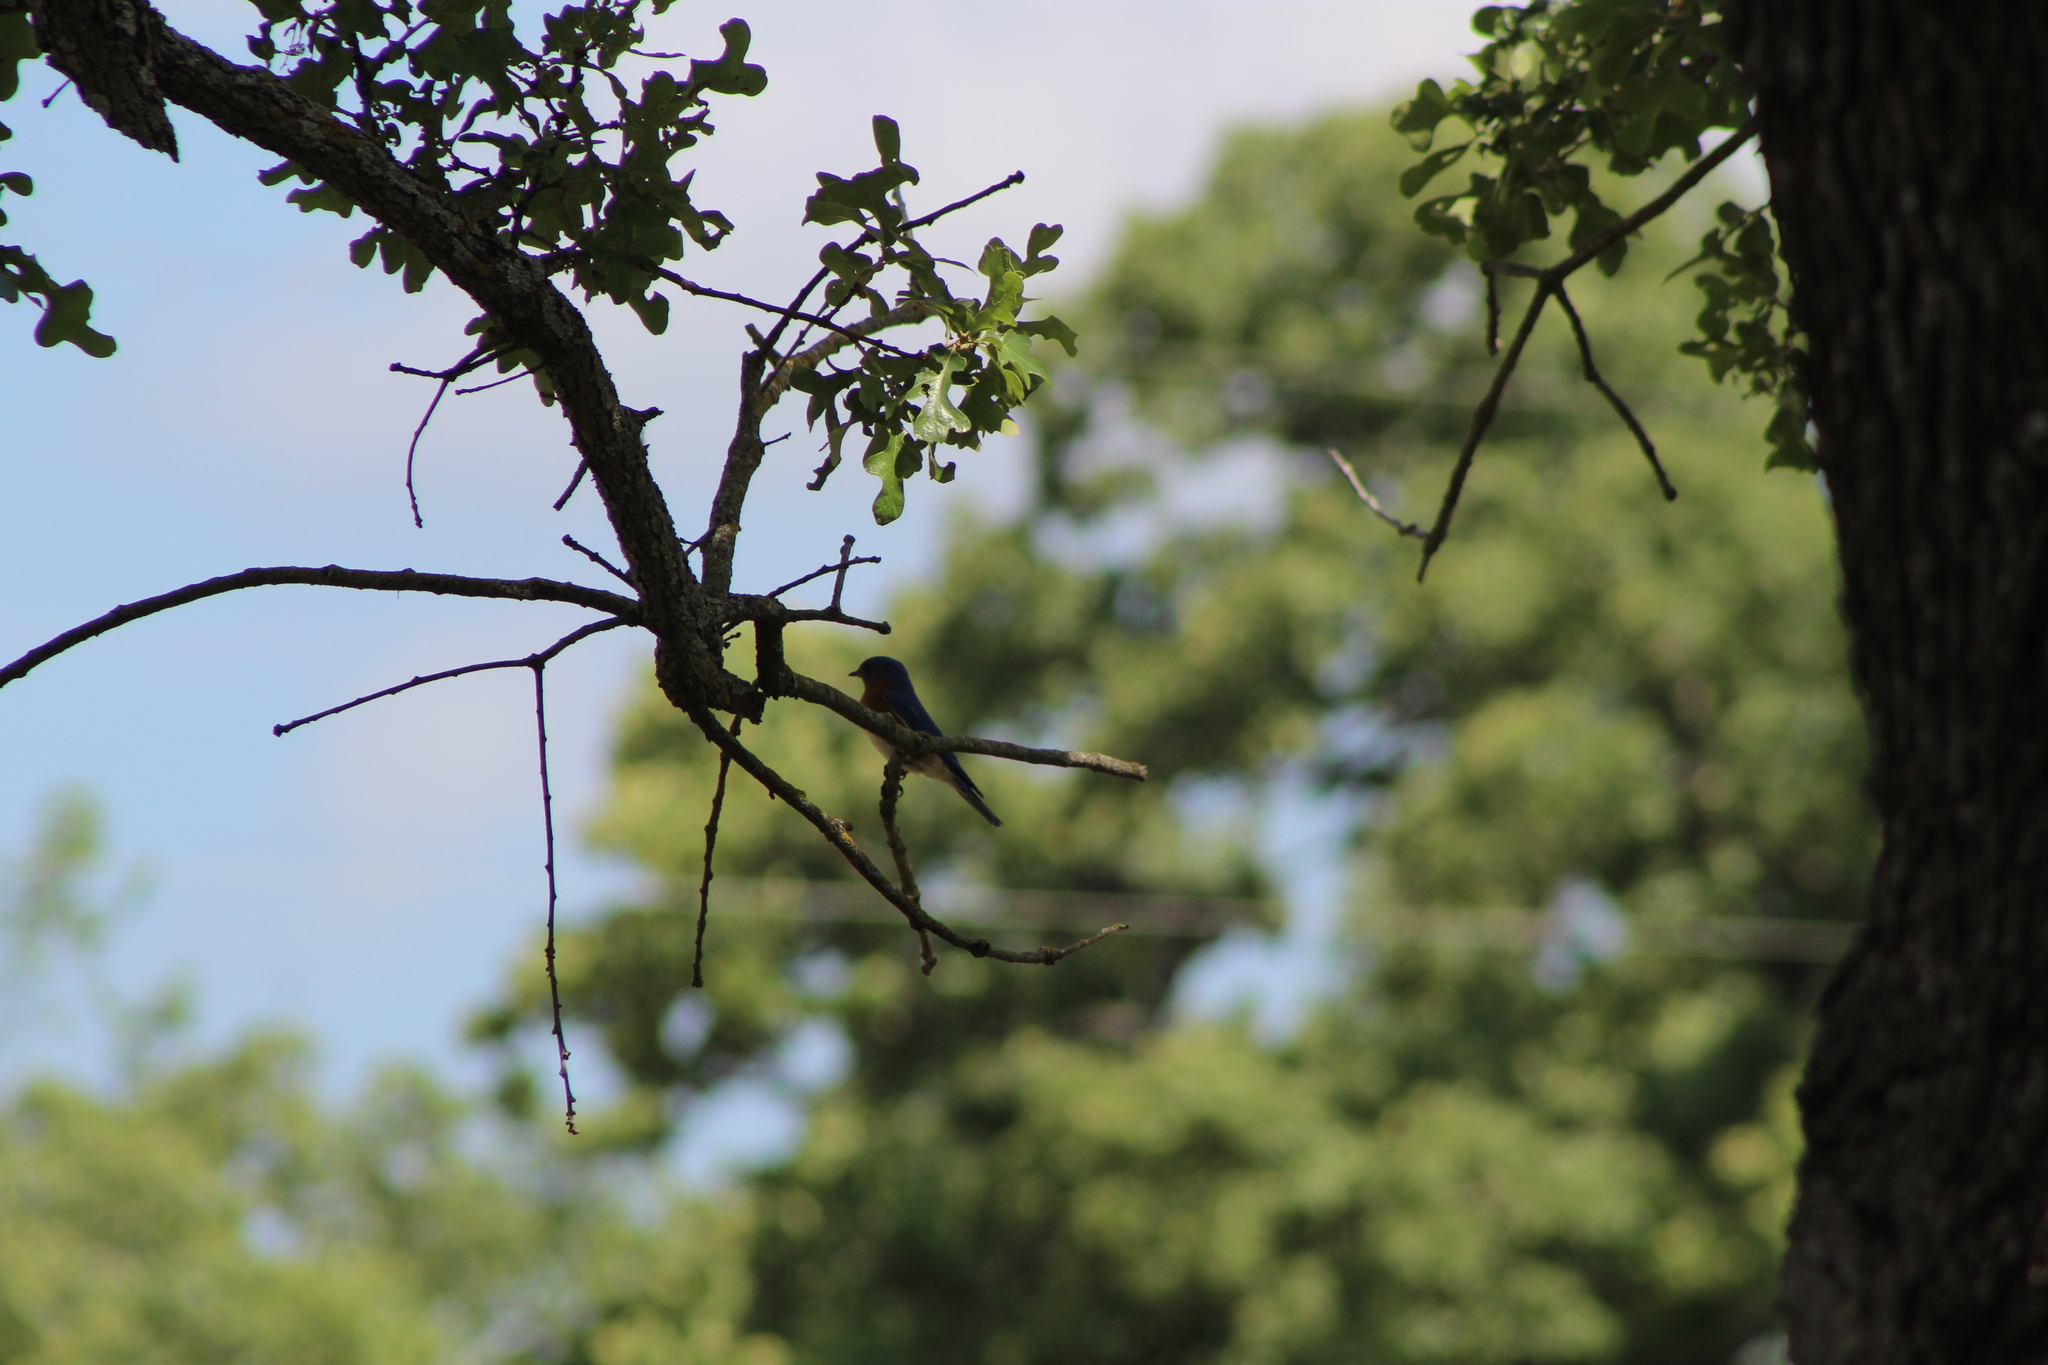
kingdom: Animalia
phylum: Chordata
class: Aves
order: Passeriformes
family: Turdidae
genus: Sialia
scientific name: Sialia sialis
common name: Eastern bluebird
